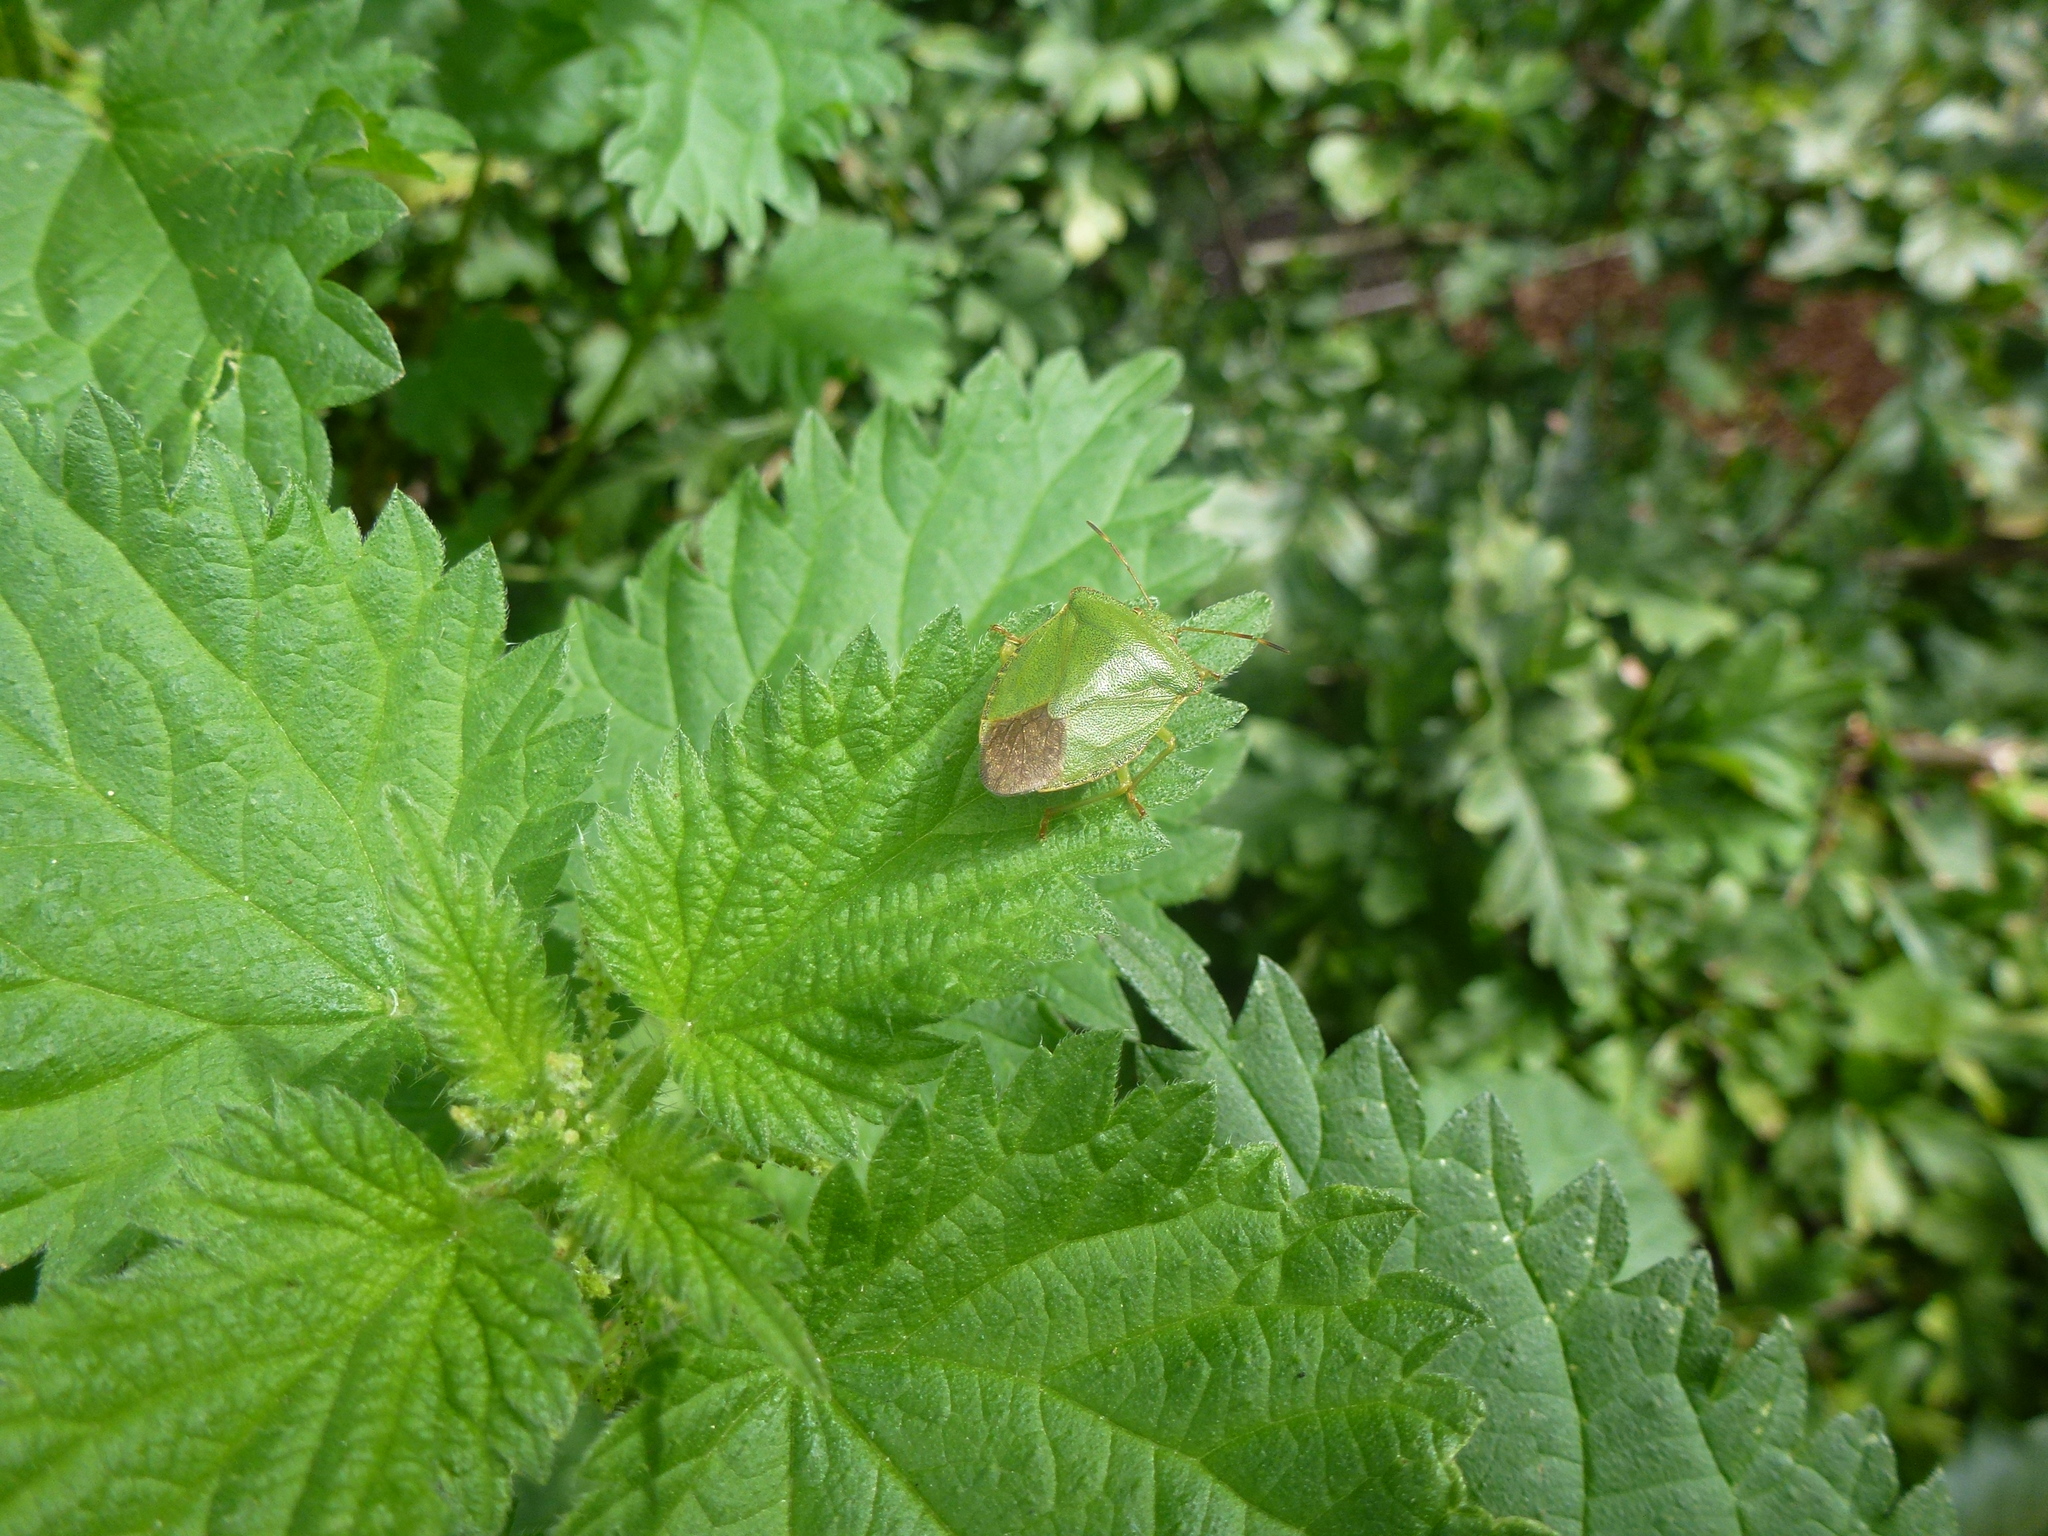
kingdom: Animalia
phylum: Arthropoda
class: Insecta
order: Hemiptera
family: Pentatomidae
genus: Palomena
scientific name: Palomena prasina
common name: Green shieldbug
